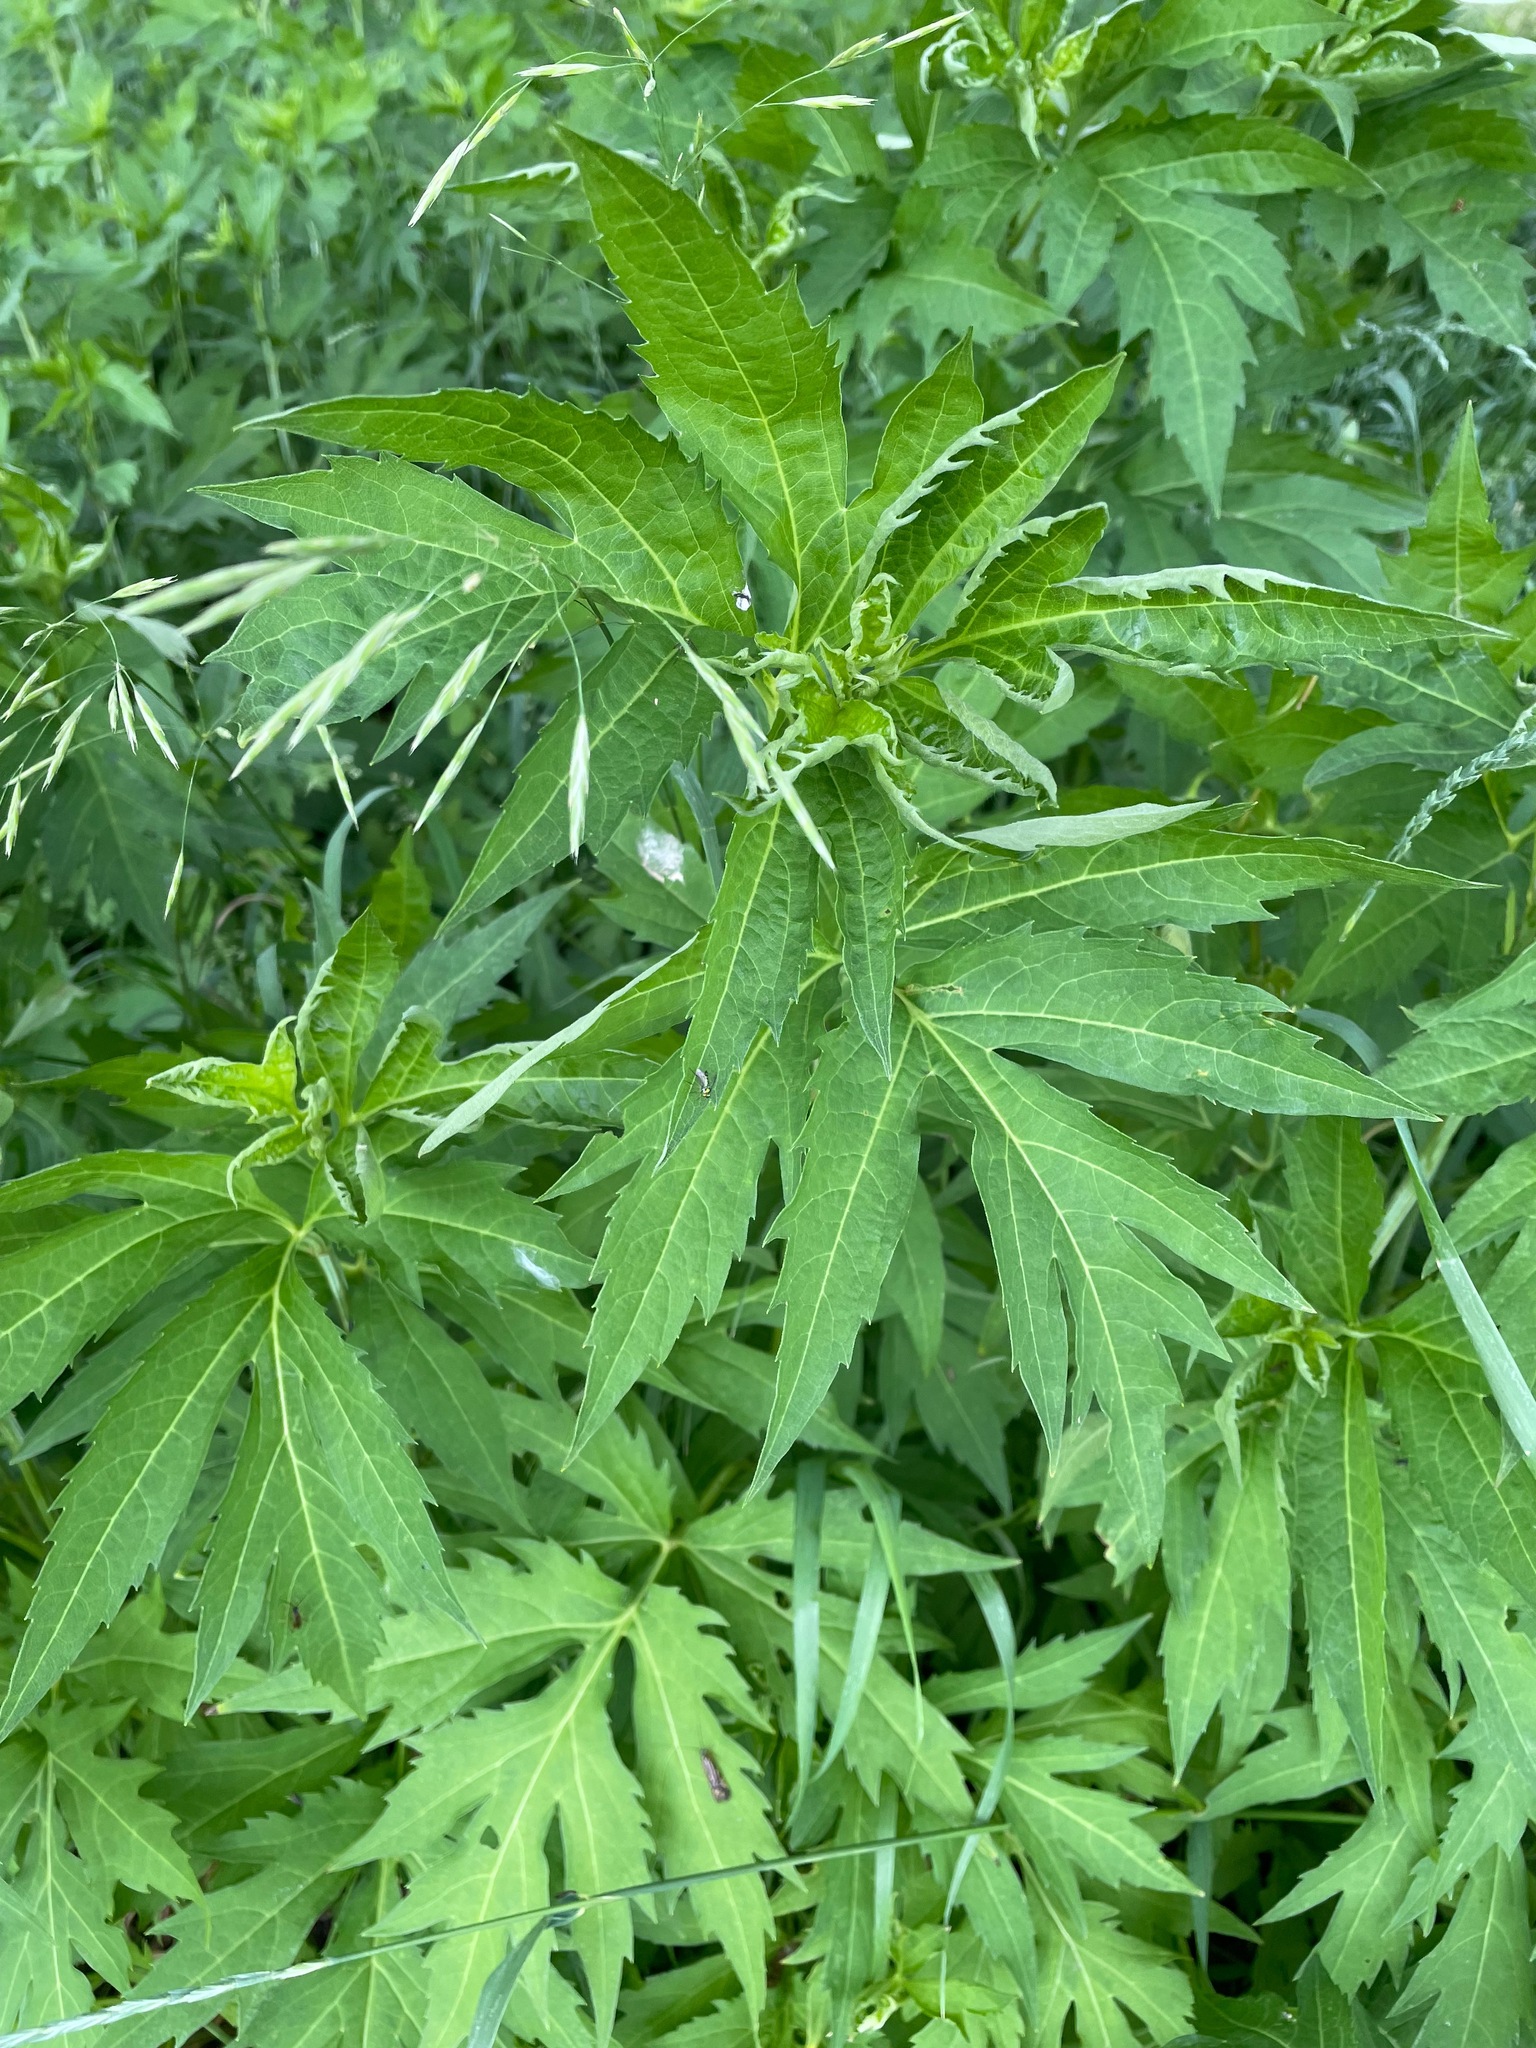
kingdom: Plantae
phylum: Tracheophyta
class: Magnoliopsida
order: Asterales
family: Asteraceae
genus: Rudbeckia
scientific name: Rudbeckia laciniata
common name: Coneflower
